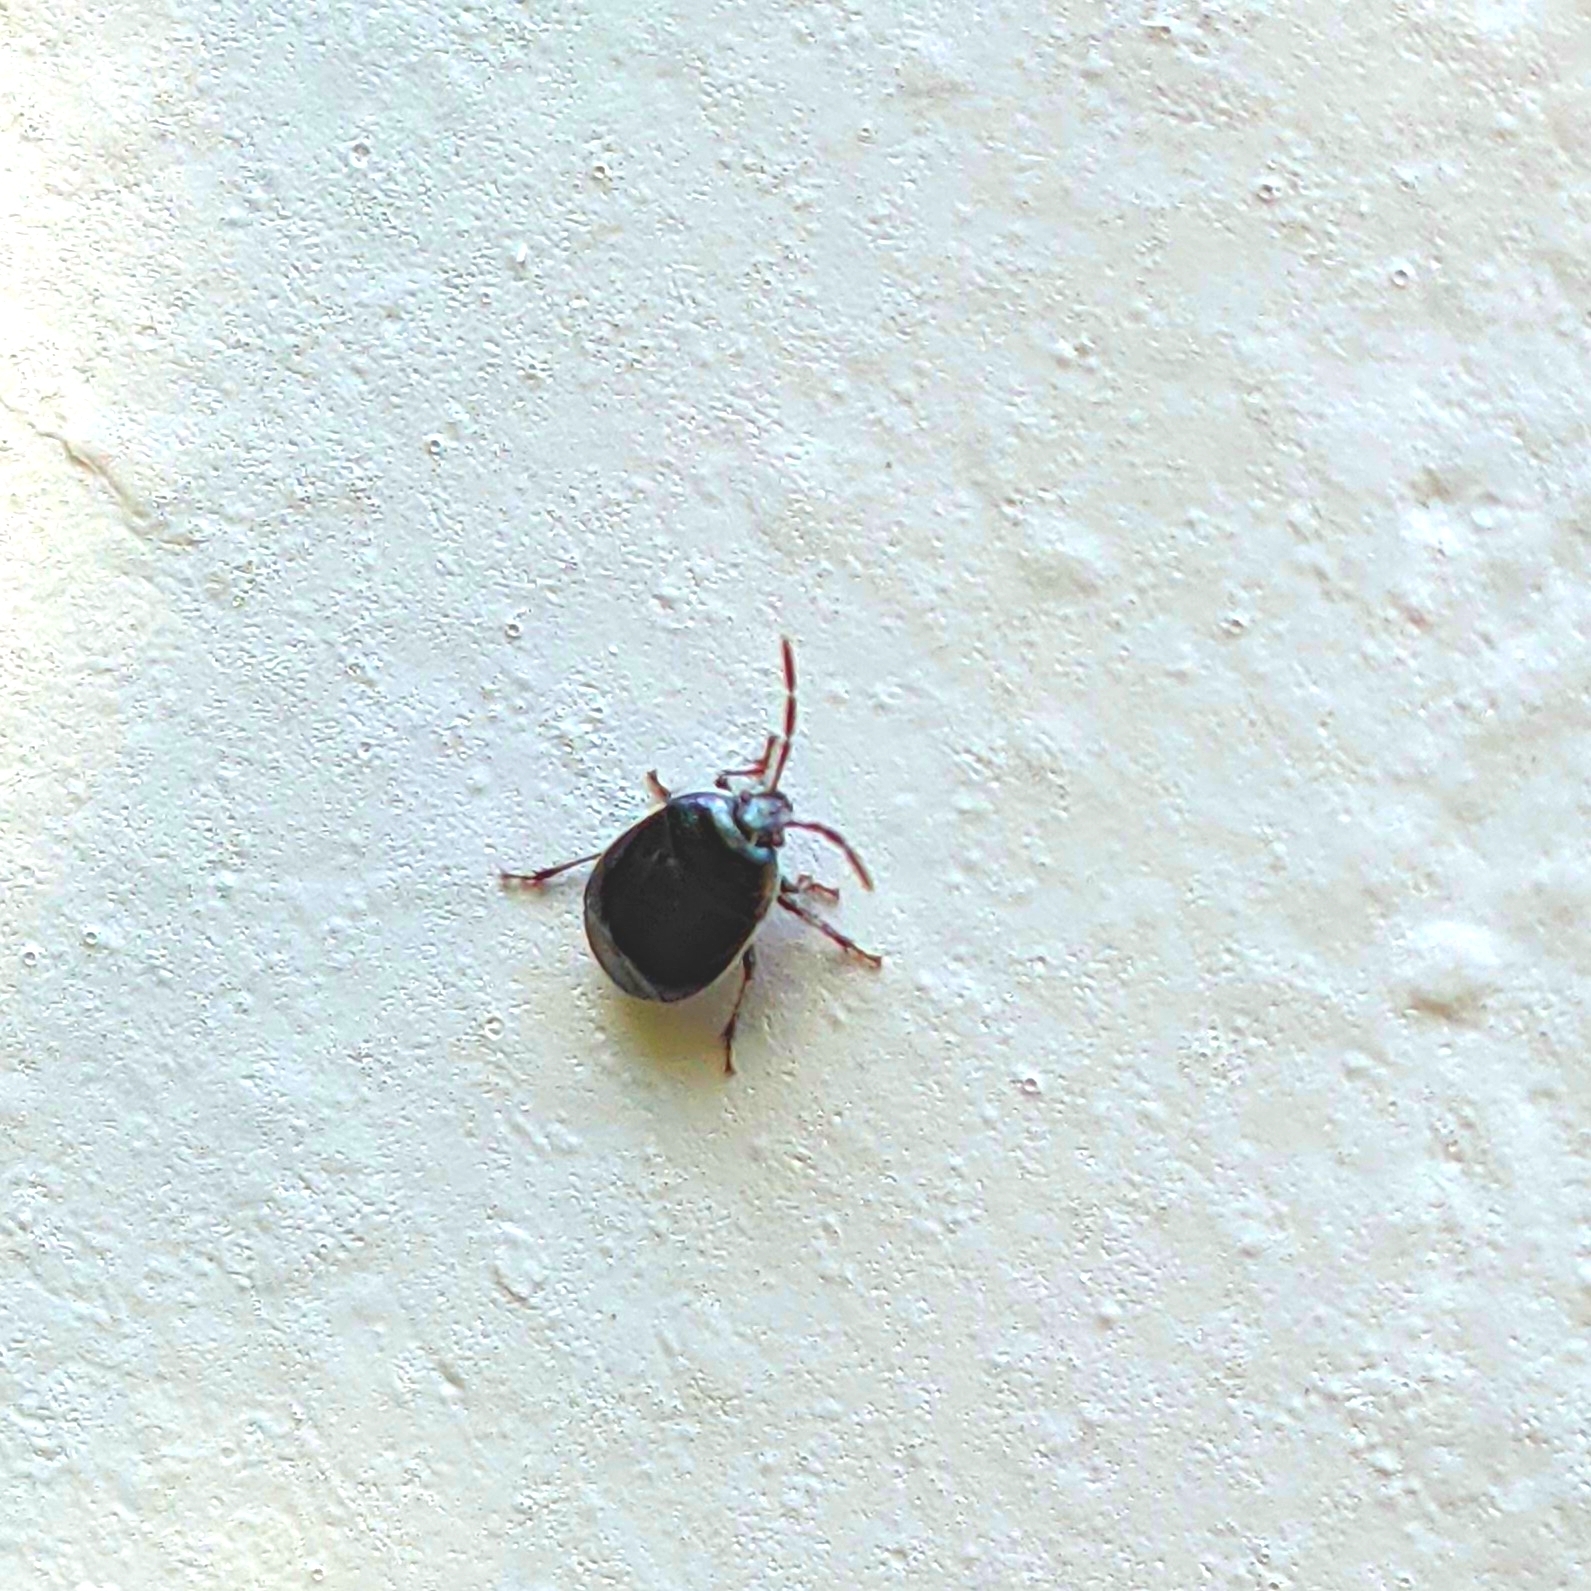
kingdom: Animalia
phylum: Arthropoda
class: Insecta
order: Hemiptera
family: Cydnidae
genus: Sehirus
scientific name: Sehirus cinctus
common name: White-margined burrower bug
